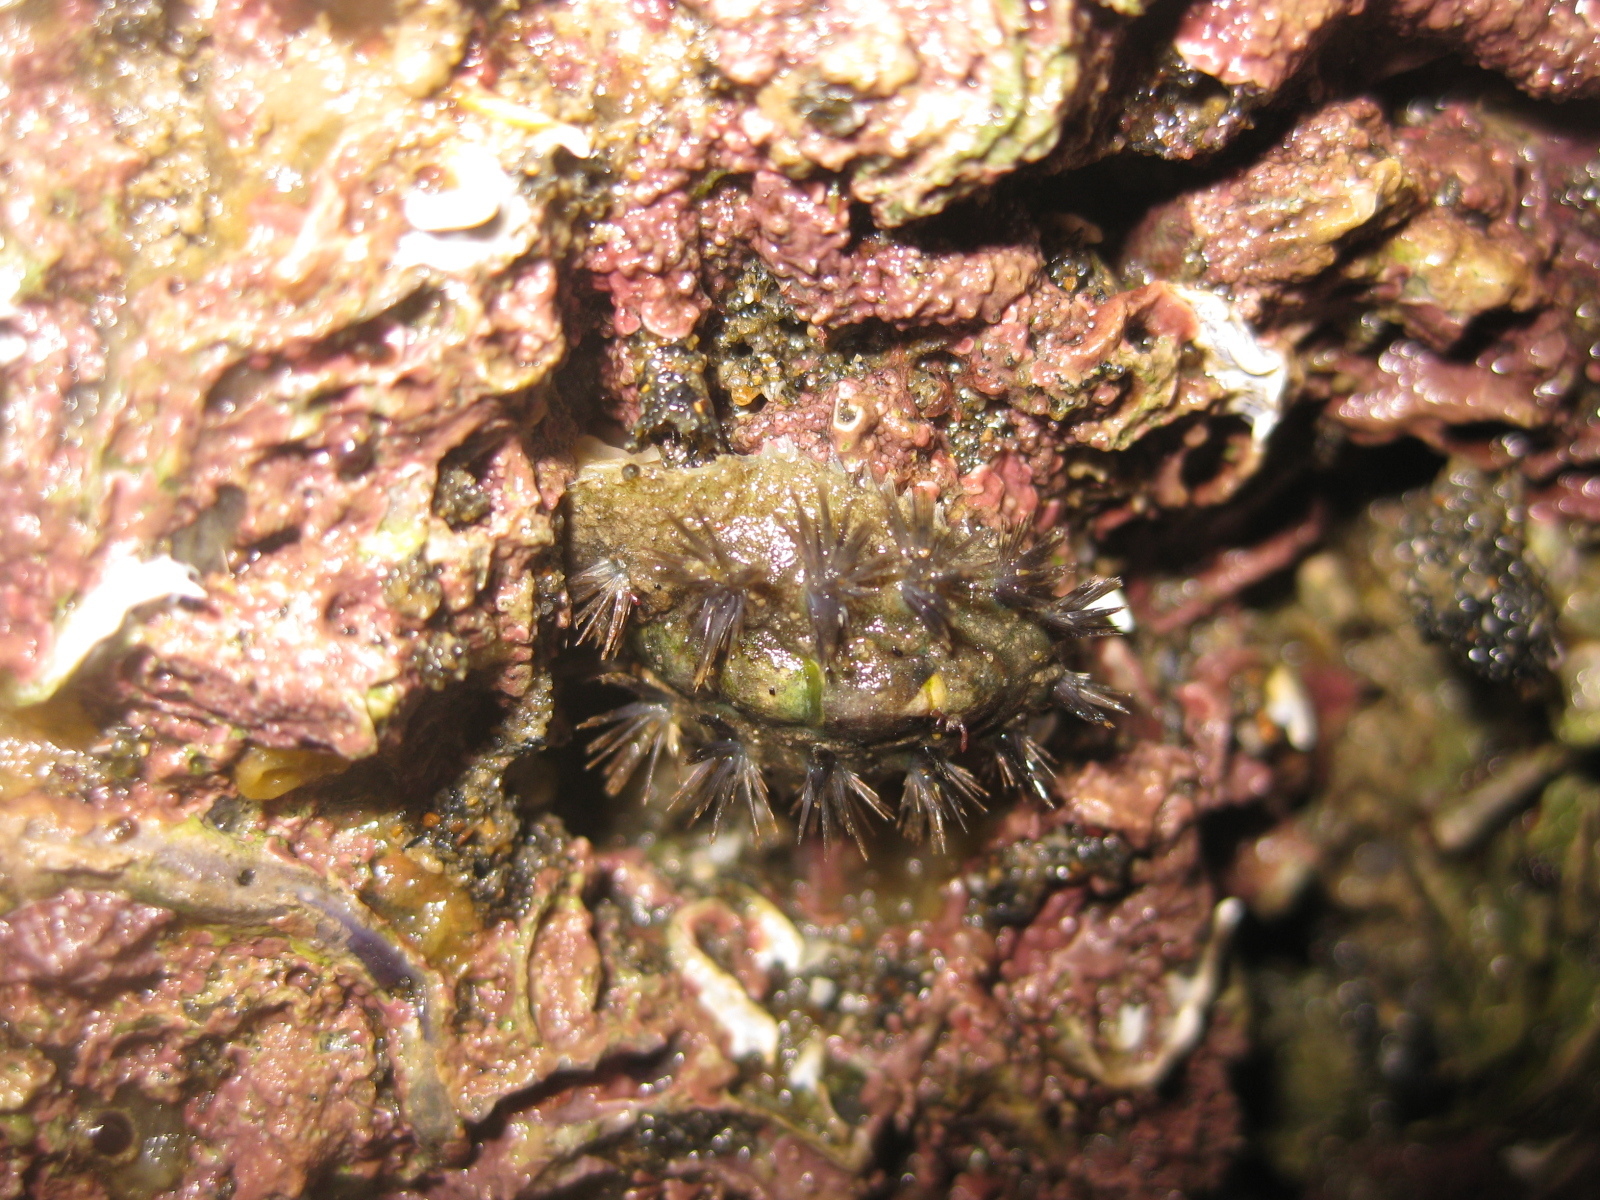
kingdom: Animalia
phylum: Mollusca
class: Polyplacophora
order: Chitonida
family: Acanthochitonidae
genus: Acanthochitona
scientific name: Acanthochitona zelandica
